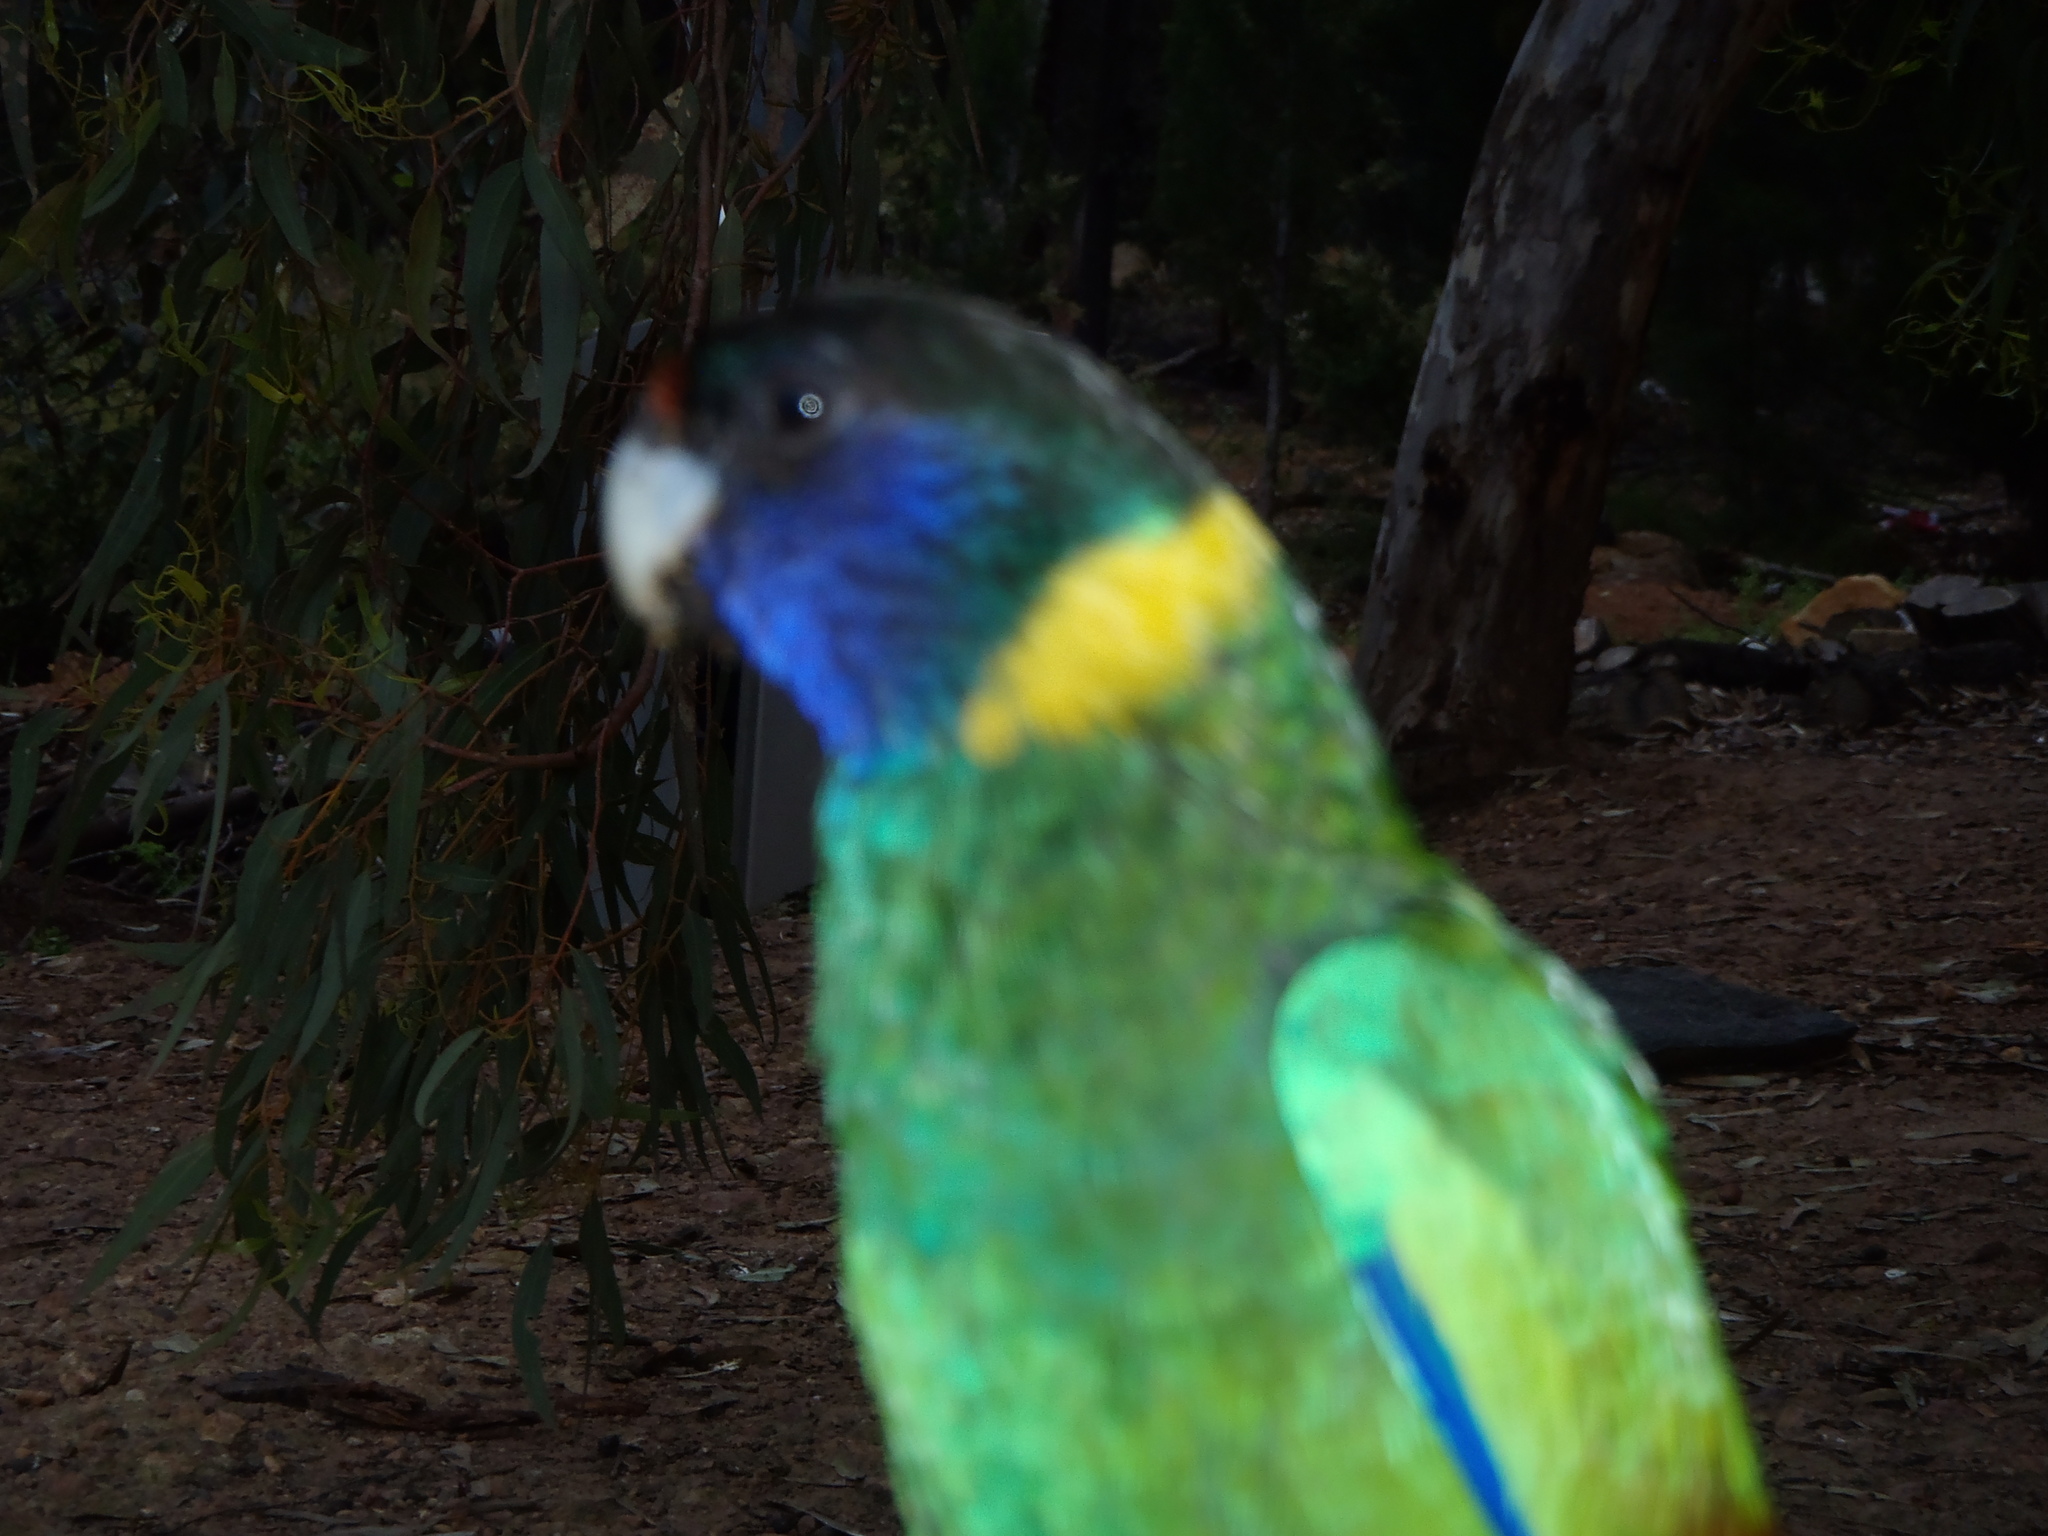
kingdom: Animalia
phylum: Chordata
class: Aves
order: Psittaciformes
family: Psittacidae
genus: Barnardius
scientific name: Barnardius zonarius
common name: Australian ringneck
